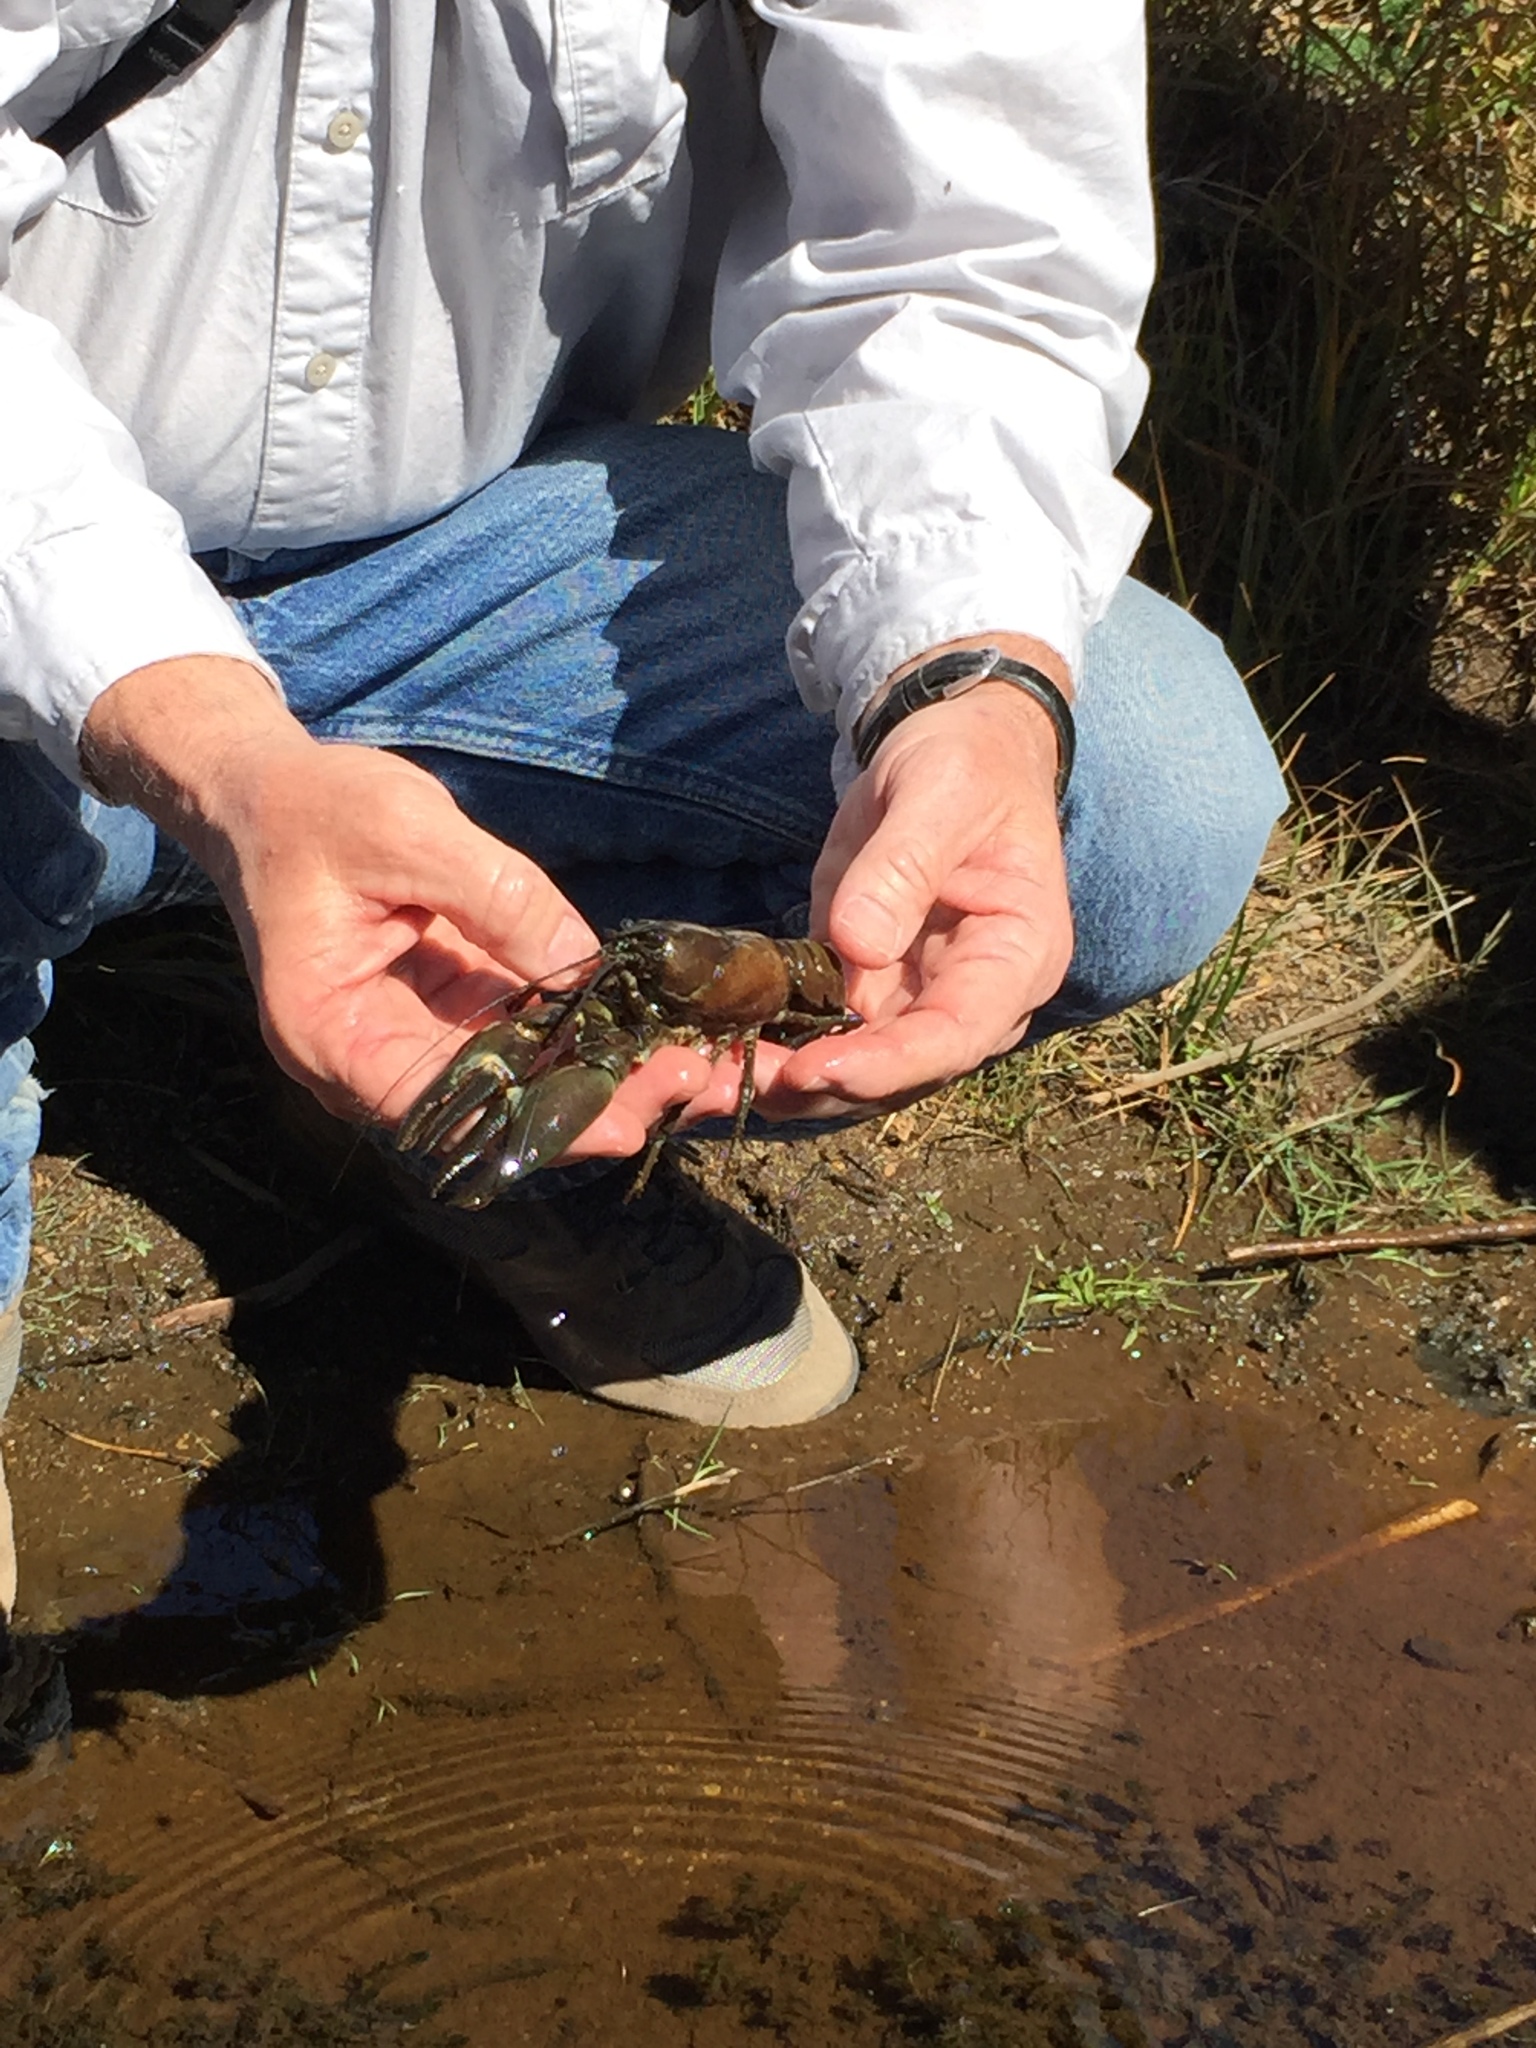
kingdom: Animalia
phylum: Arthropoda
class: Malacostraca
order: Decapoda
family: Astacidae
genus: Pacifastacus
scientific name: Pacifastacus leniusculus
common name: Signal crayfish
